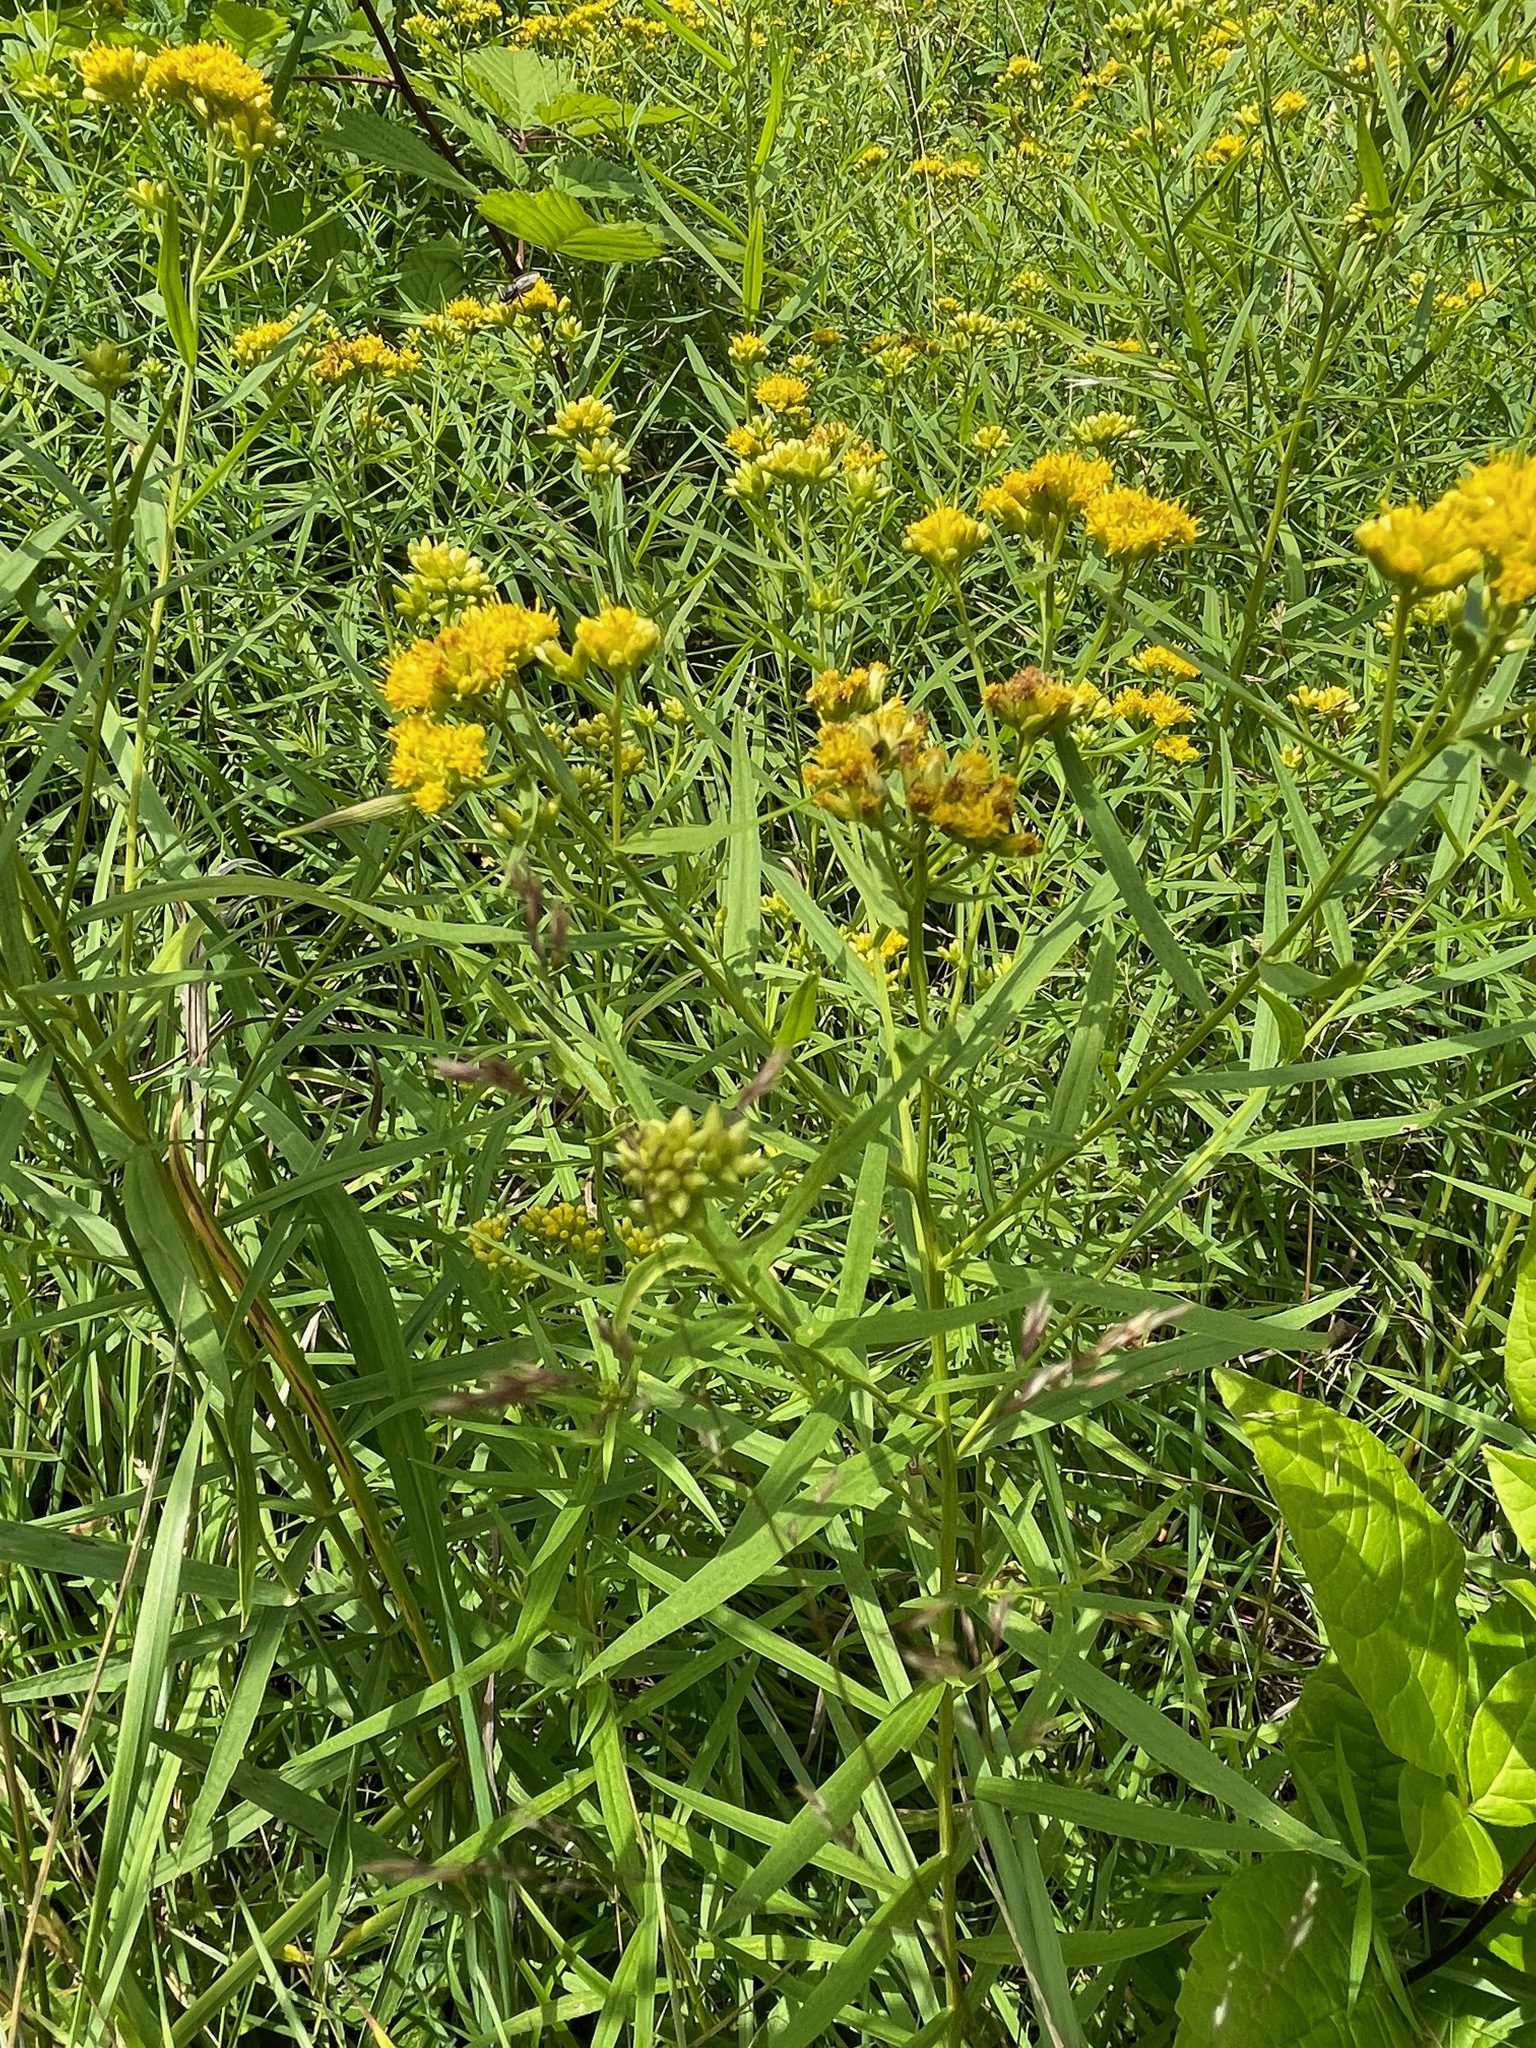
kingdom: Plantae
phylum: Tracheophyta
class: Magnoliopsida
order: Asterales
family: Asteraceae
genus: Euthamia
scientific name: Euthamia graminifolia
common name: Common goldentop
